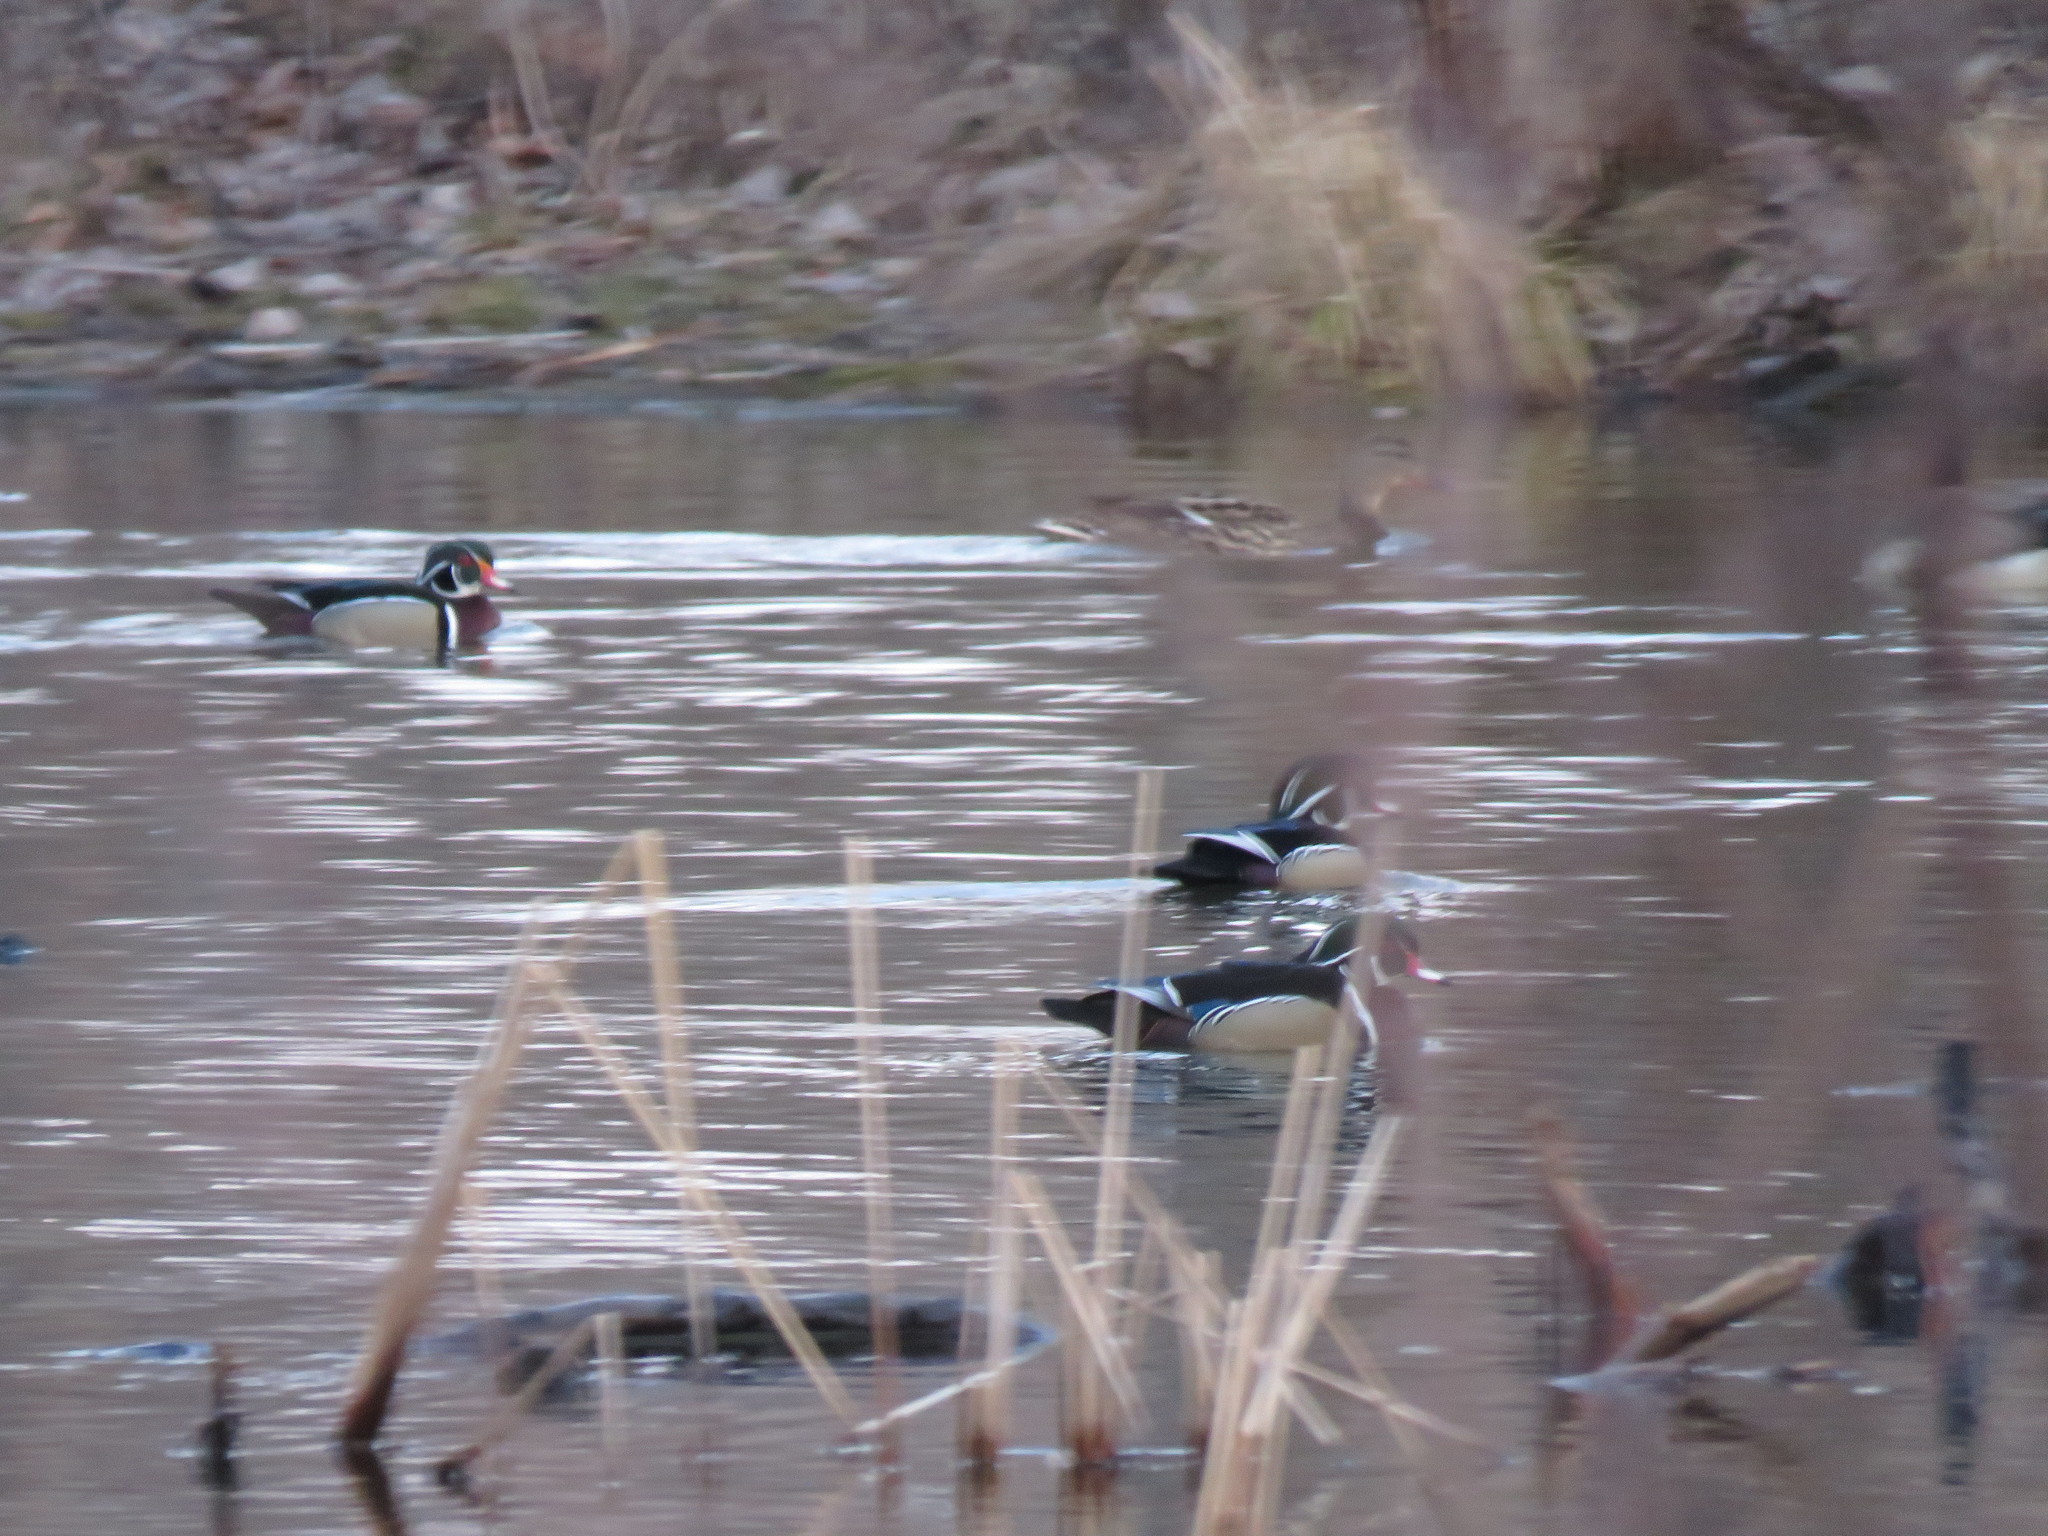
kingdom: Animalia
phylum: Chordata
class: Aves
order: Anseriformes
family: Anatidae
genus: Aix
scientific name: Aix sponsa
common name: Wood duck
